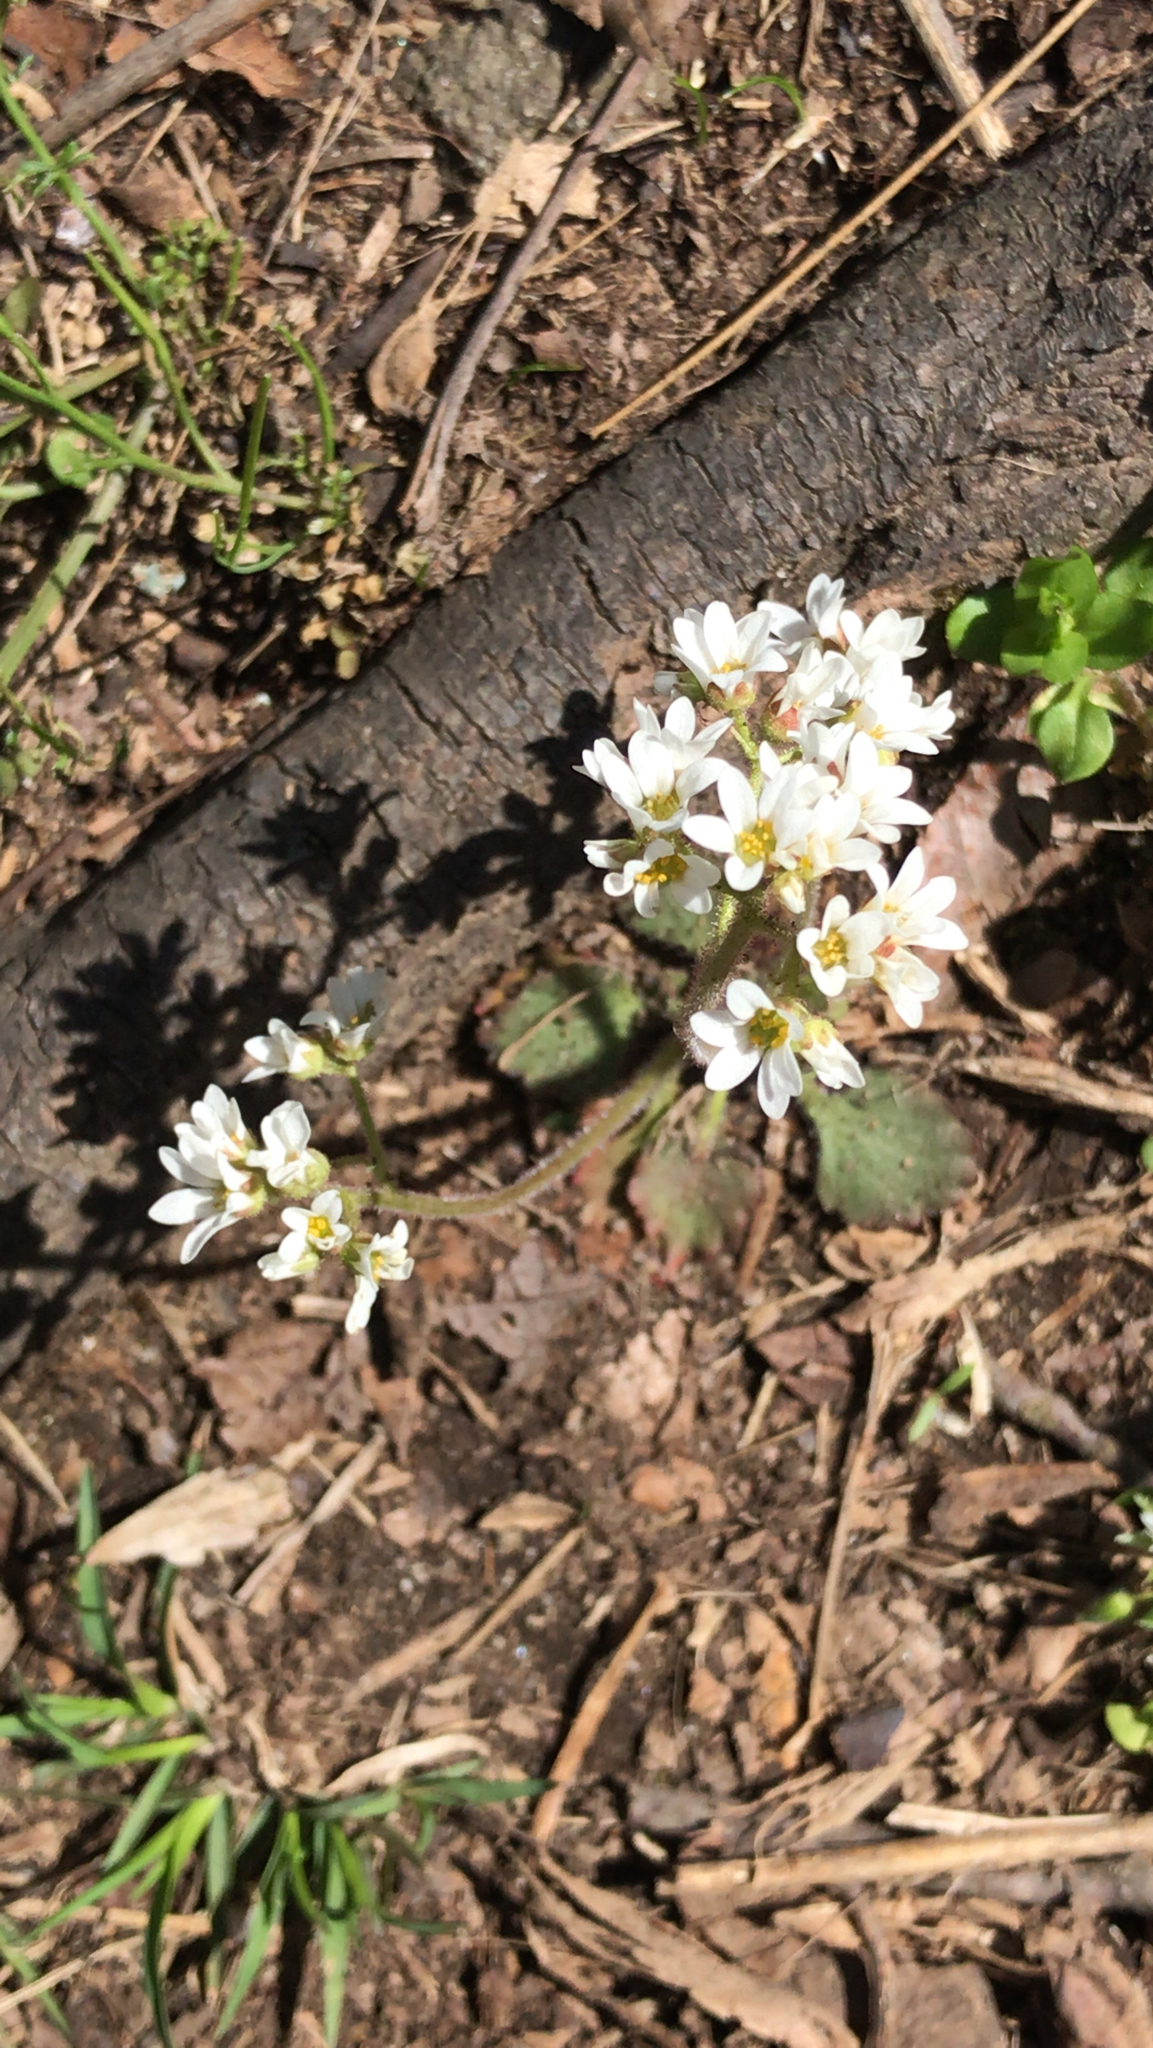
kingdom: Plantae
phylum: Tracheophyta
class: Magnoliopsida
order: Saxifragales
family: Saxifragaceae
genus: Micranthes
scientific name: Micranthes virginiensis
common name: Early saxifrage
